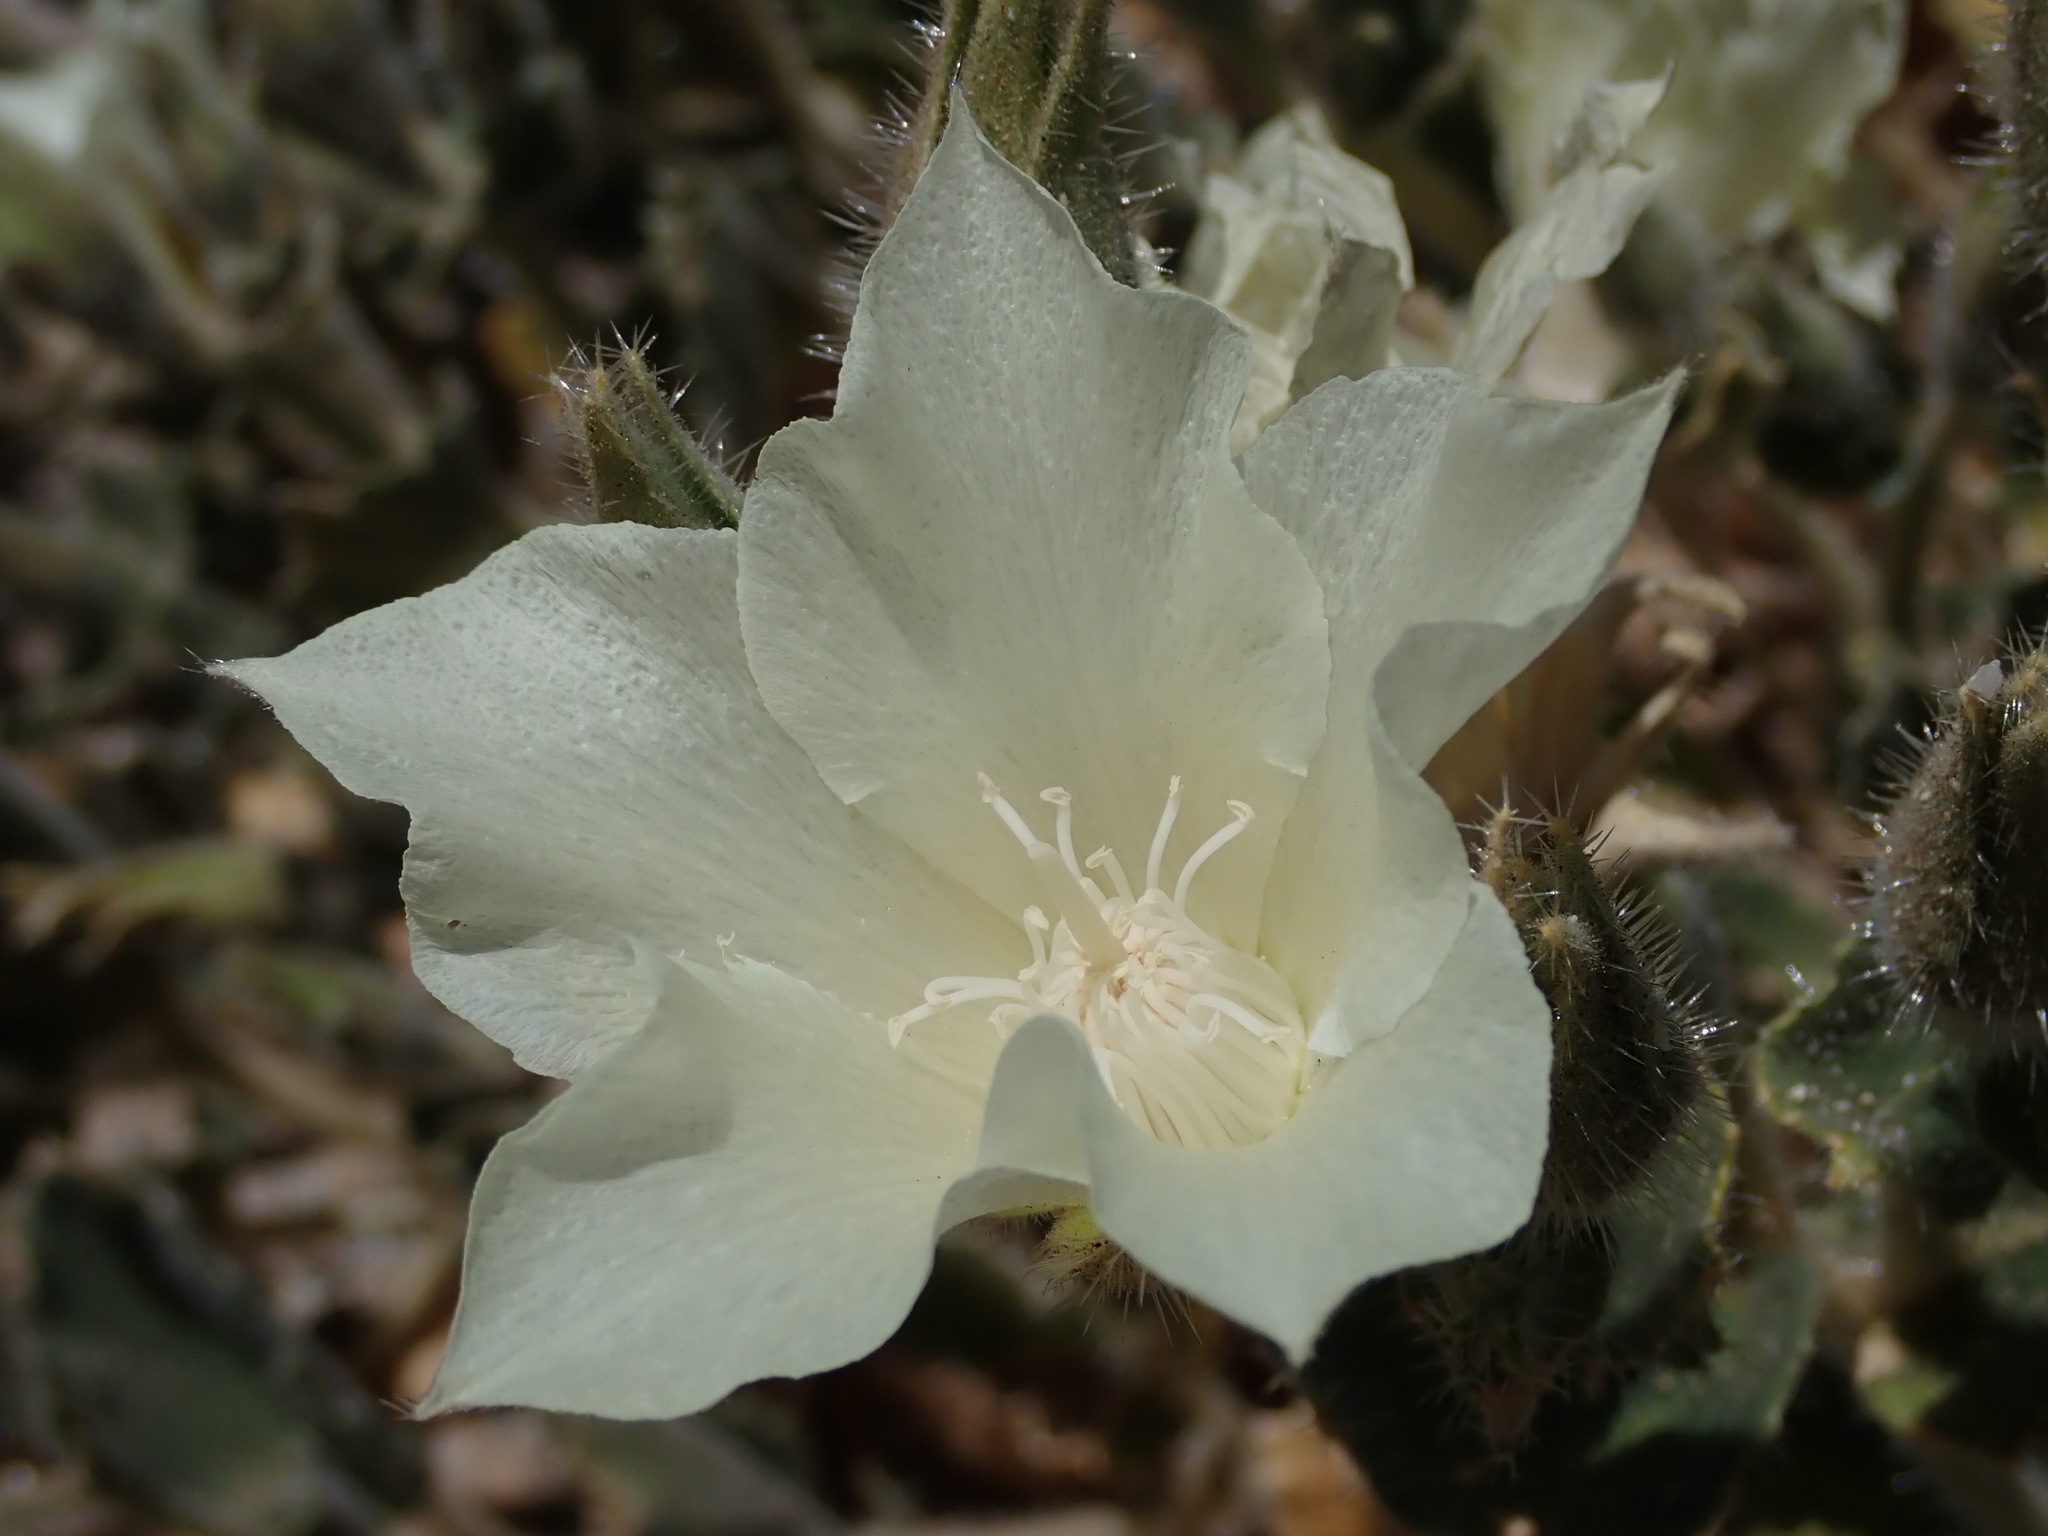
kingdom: Plantae
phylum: Tracheophyta
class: Magnoliopsida
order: Cornales
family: Loasaceae
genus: Eucnide
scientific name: Eucnide urens
